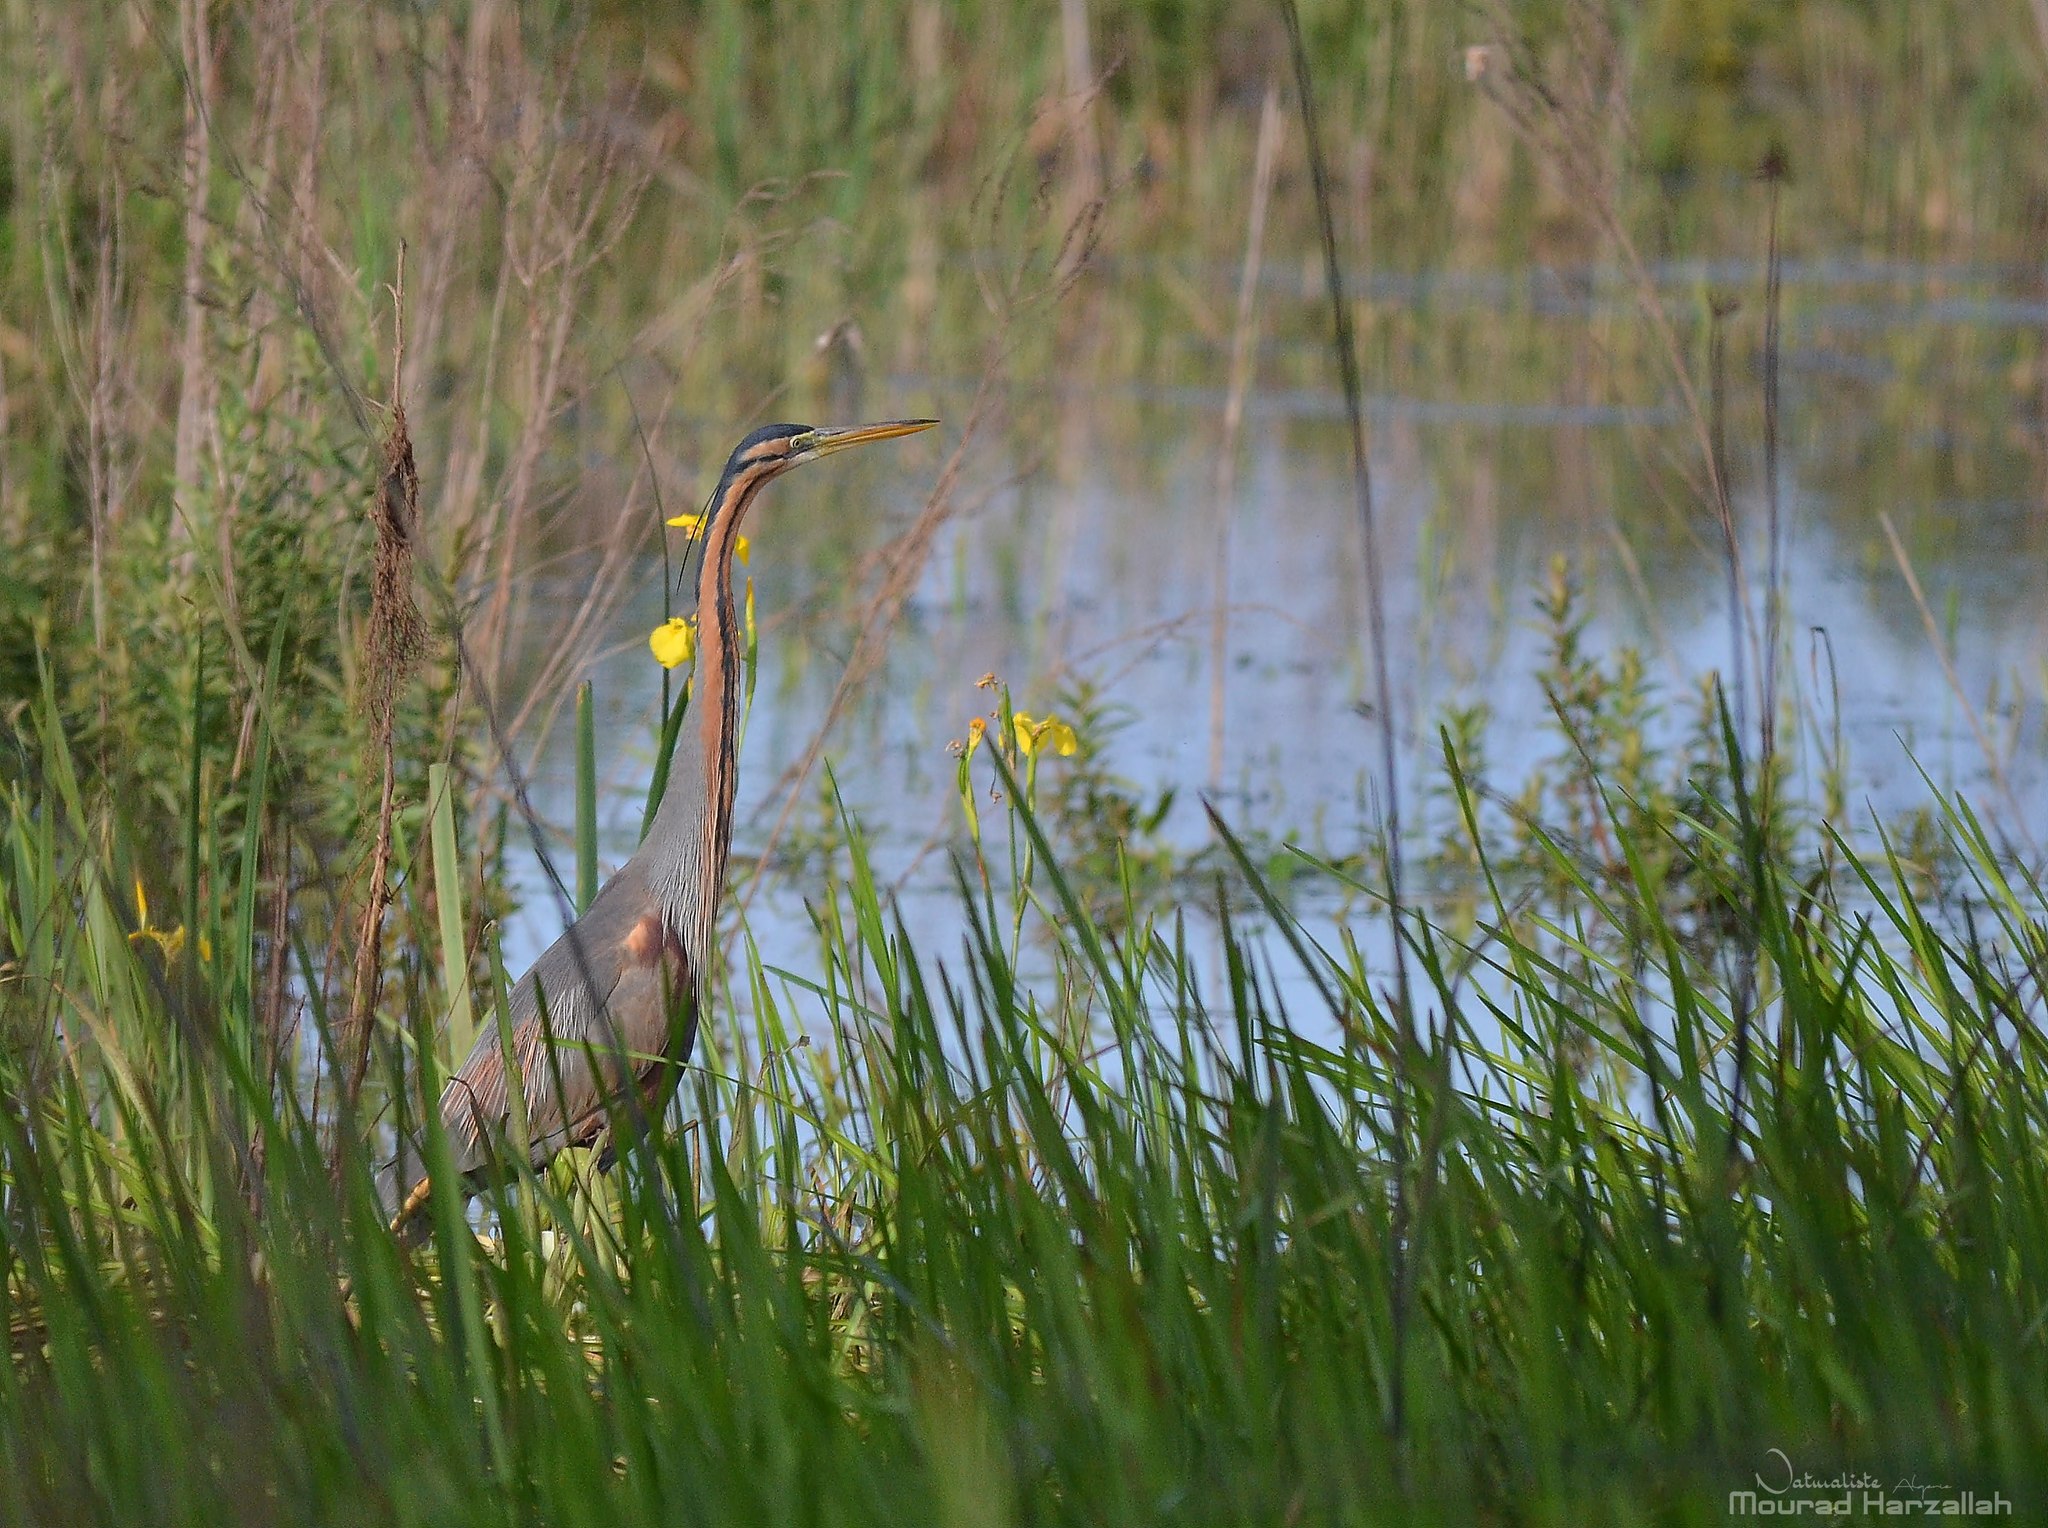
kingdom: Animalia
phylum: Chordata
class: Aves
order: Pelecaniformes
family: Ardeidae
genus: Ardea
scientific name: Ardea purpurea
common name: Purple heron
